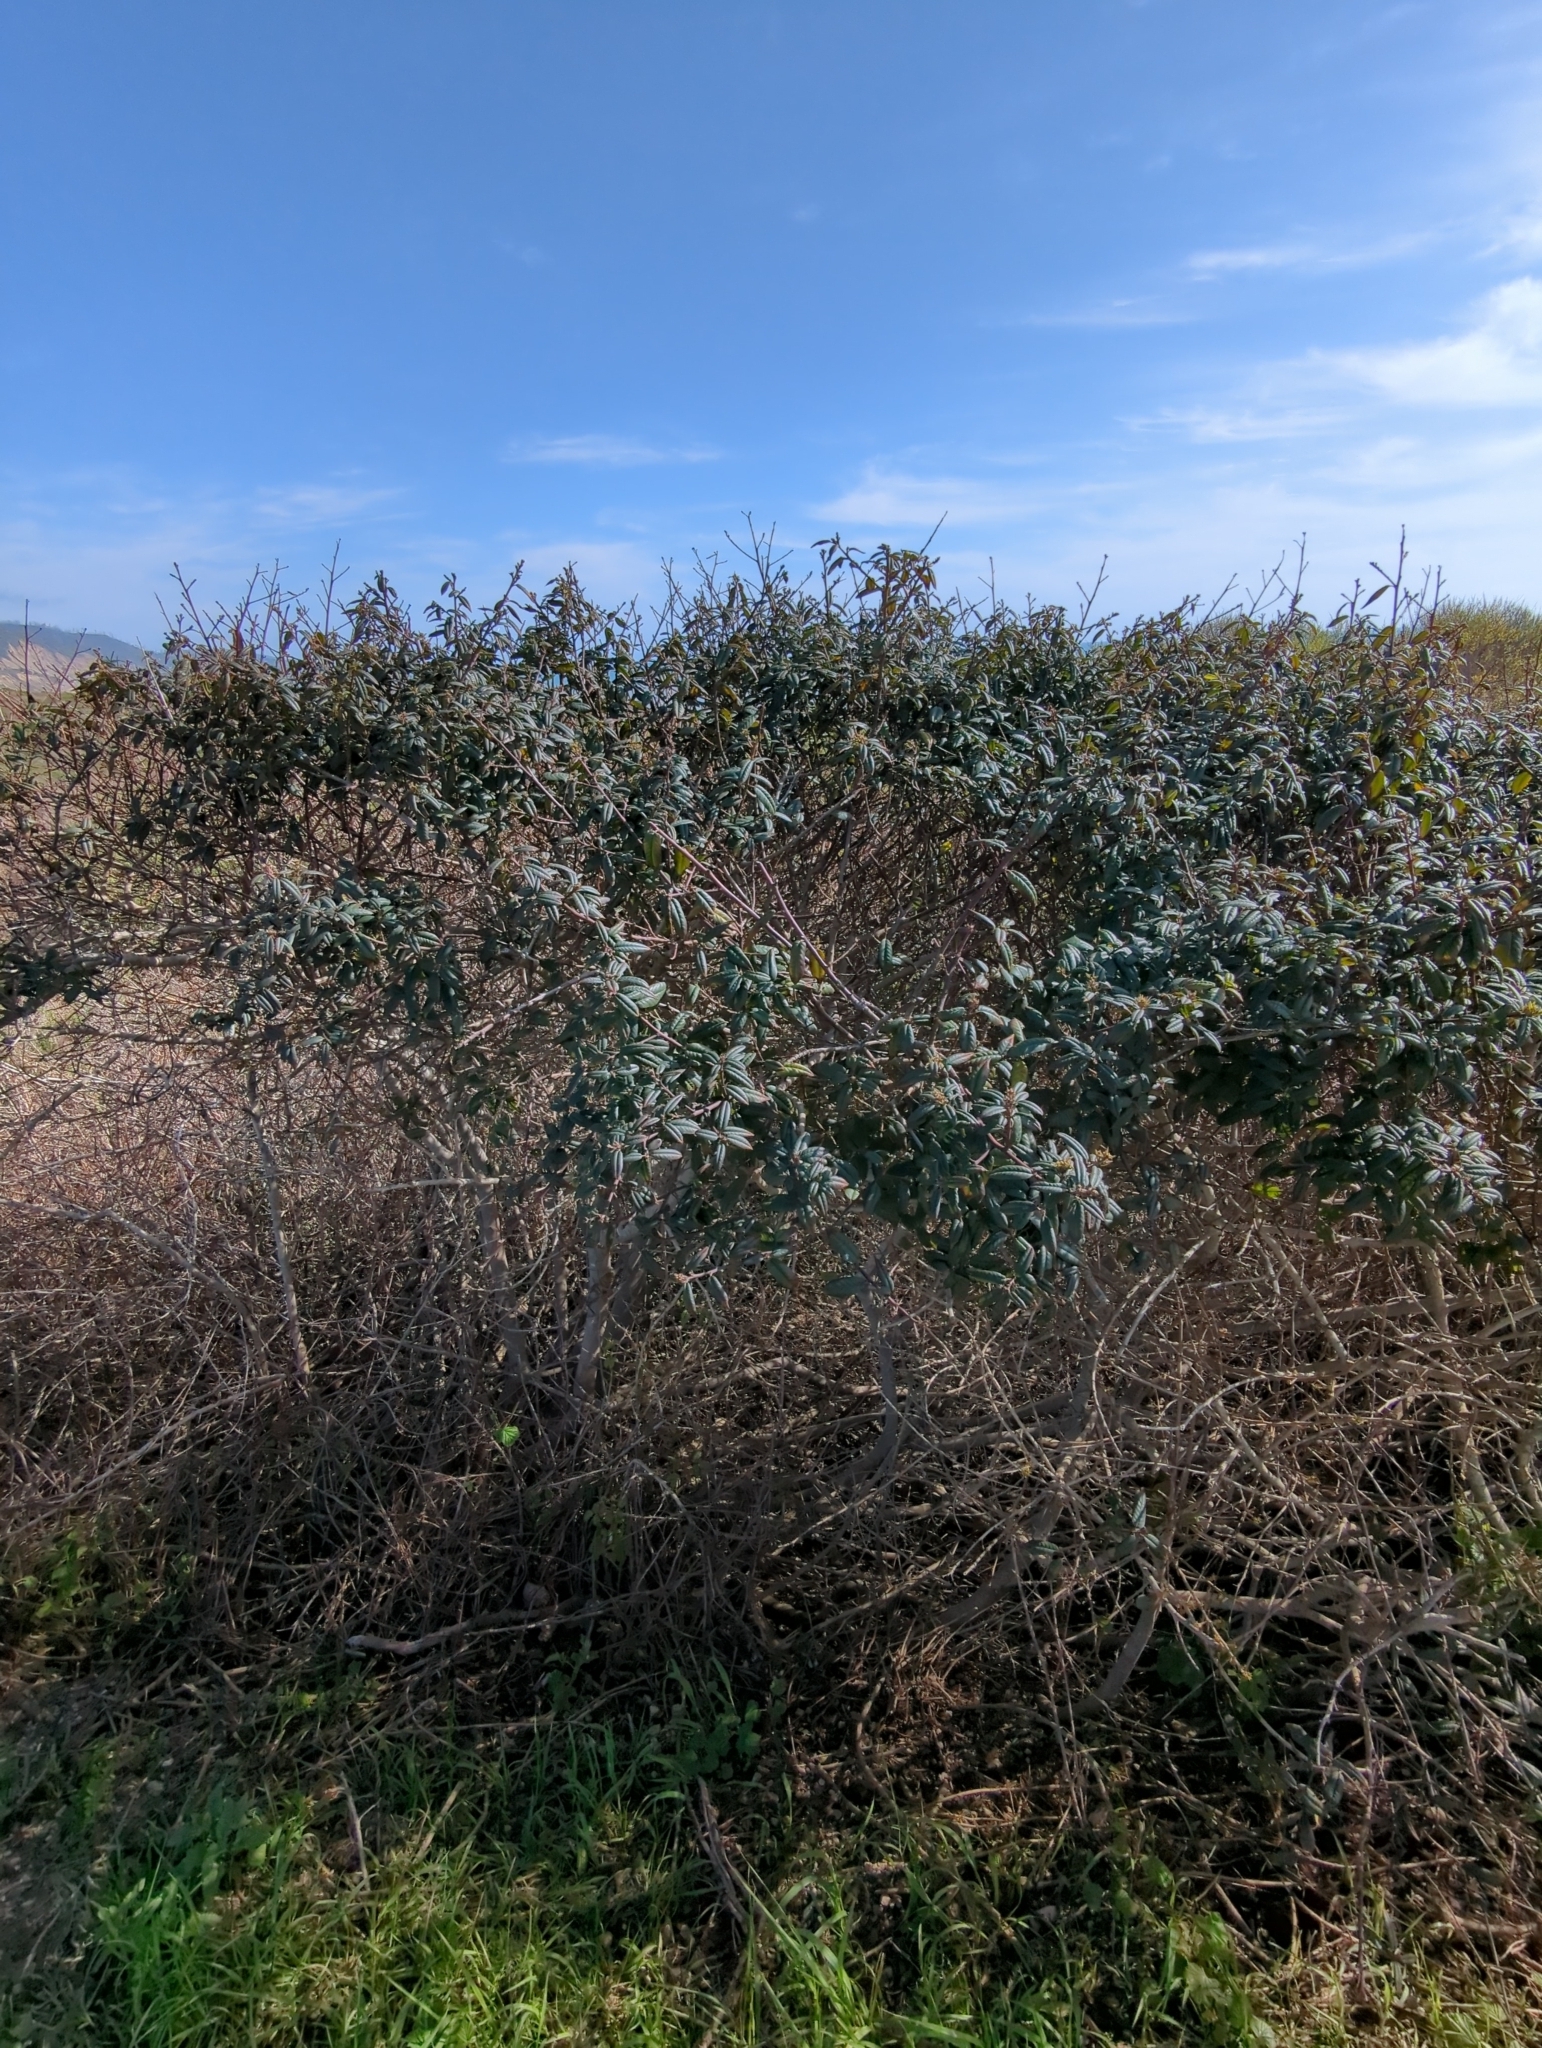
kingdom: Plantae
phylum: Tracheophyta
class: Magnoliopsida
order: Rosales
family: Rhamnaceae
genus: Frangula
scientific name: Frangula californica
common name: California buckthorn
